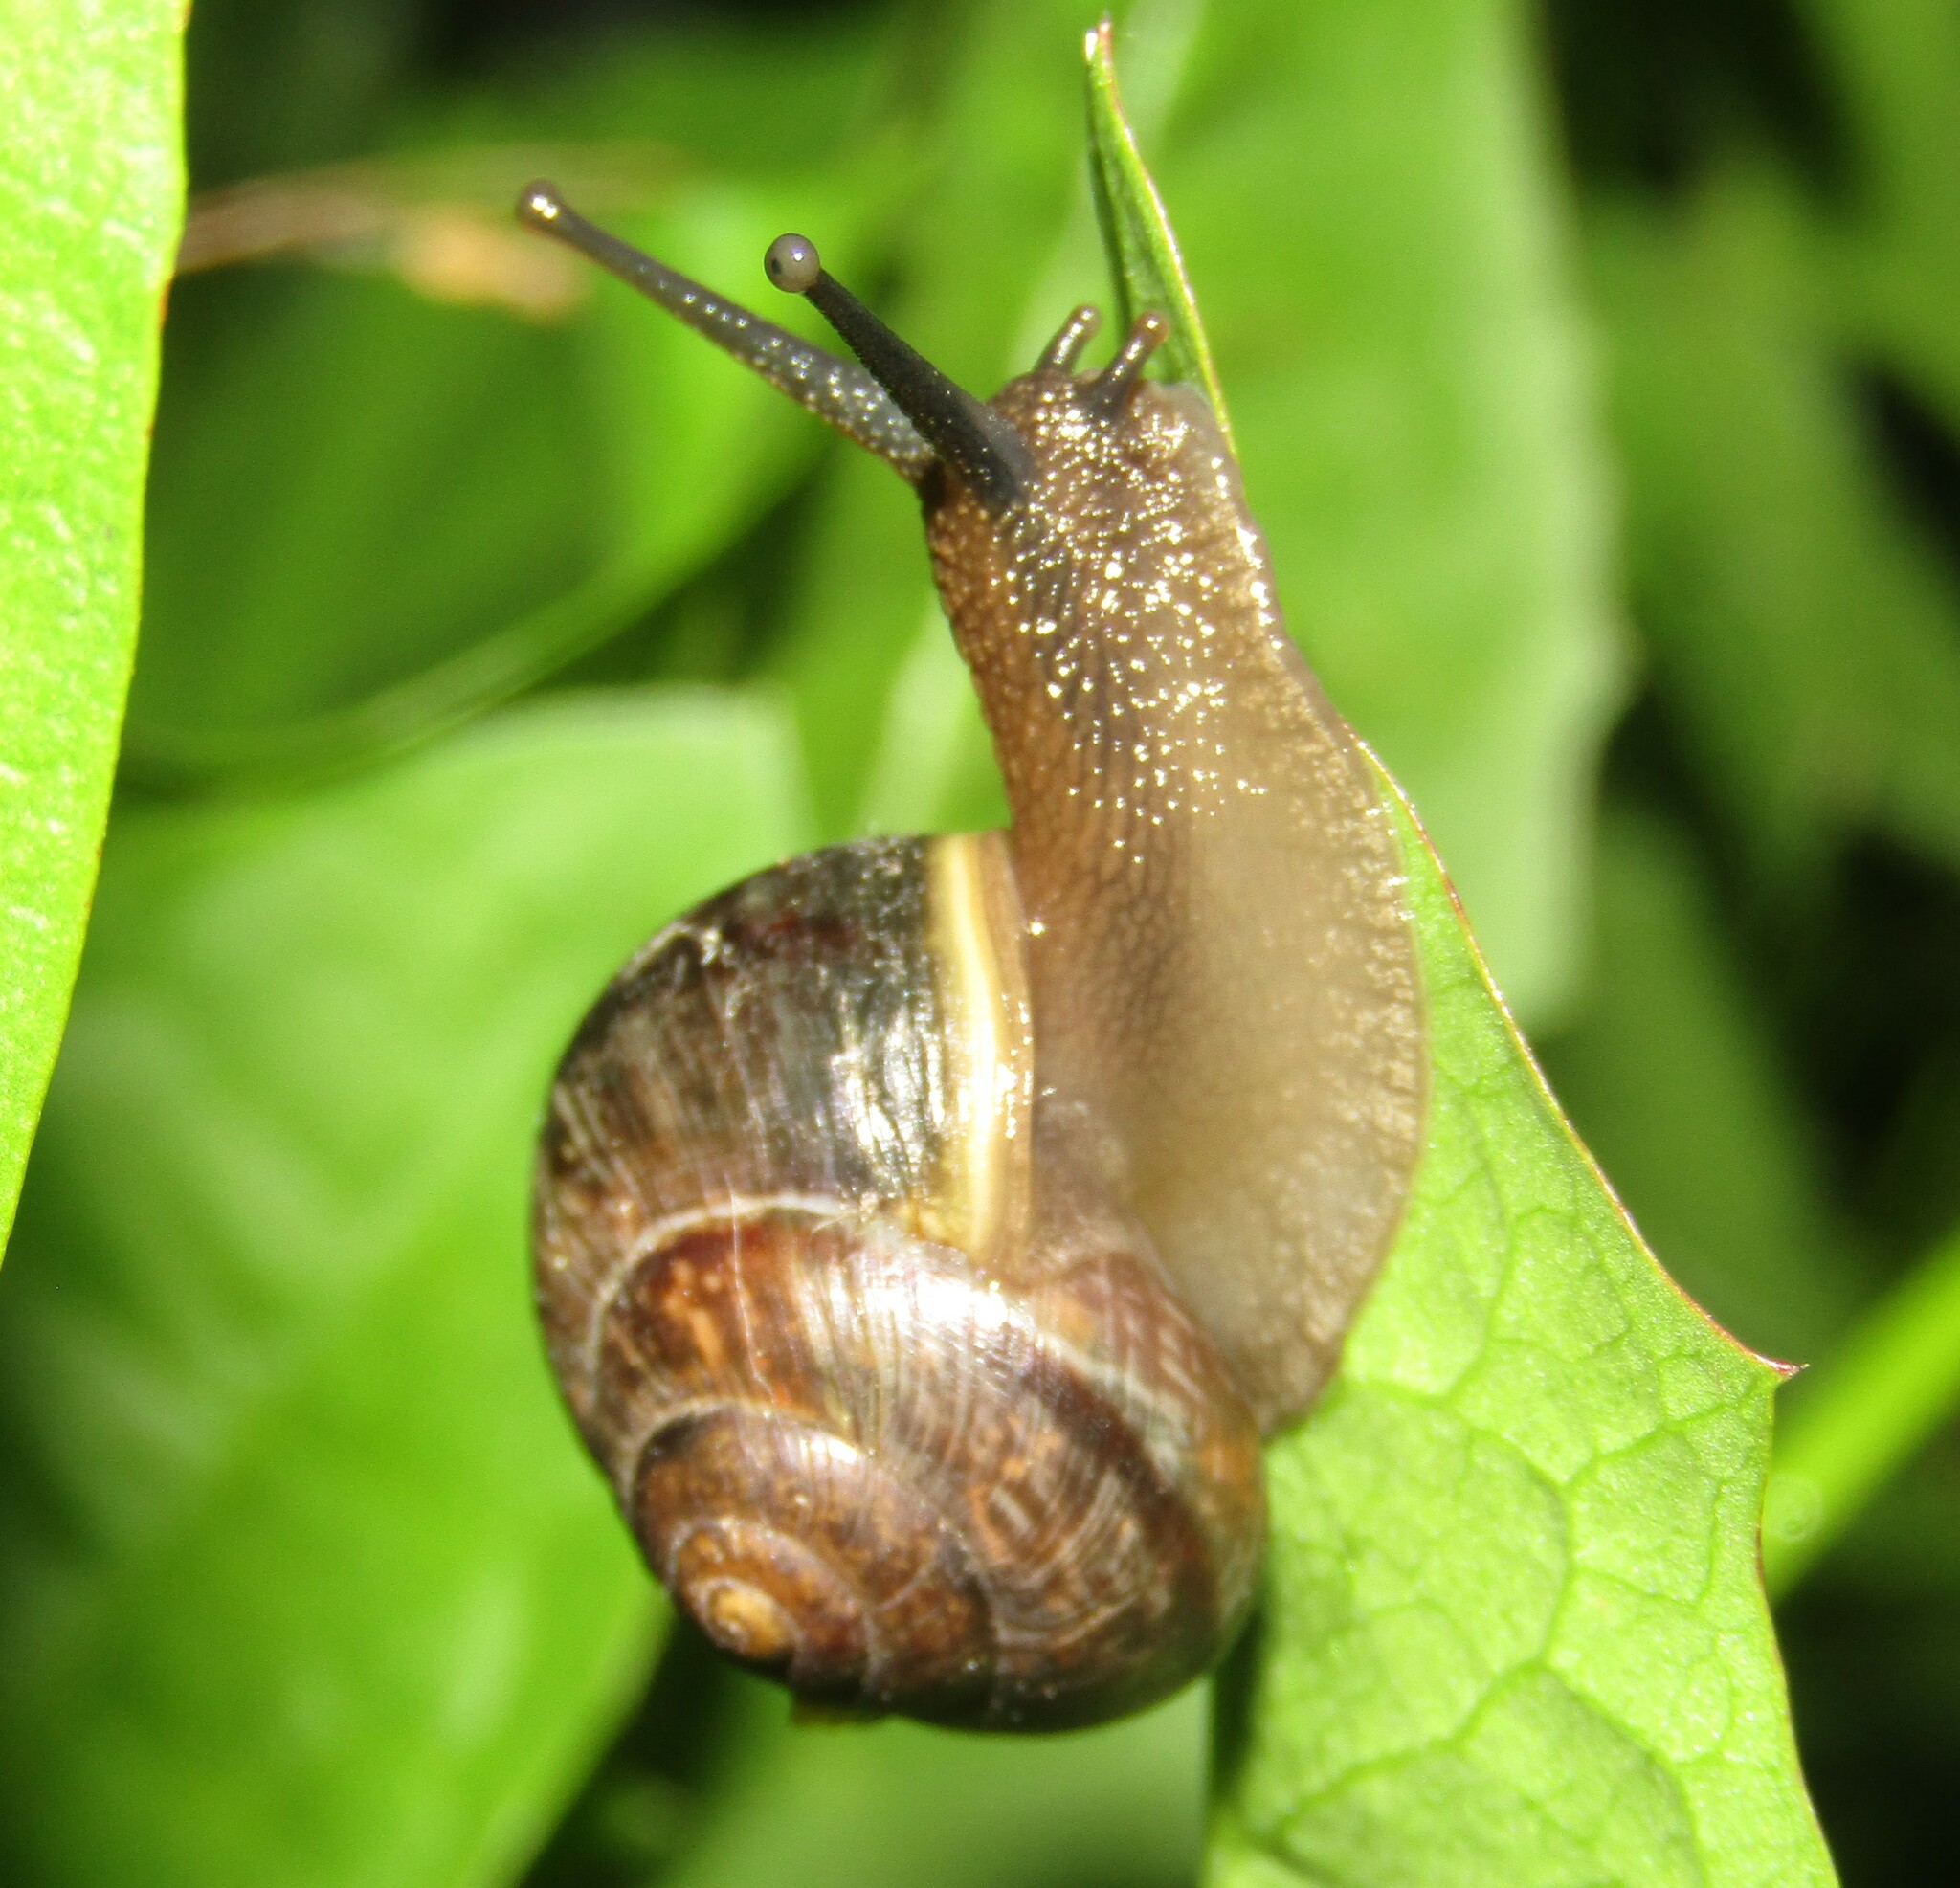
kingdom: Animalia
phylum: Mollusca
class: Gastropoda
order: Stylommatophora
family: Helicidae
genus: Arianta
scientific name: Arianta arbustorum
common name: Copse snail
